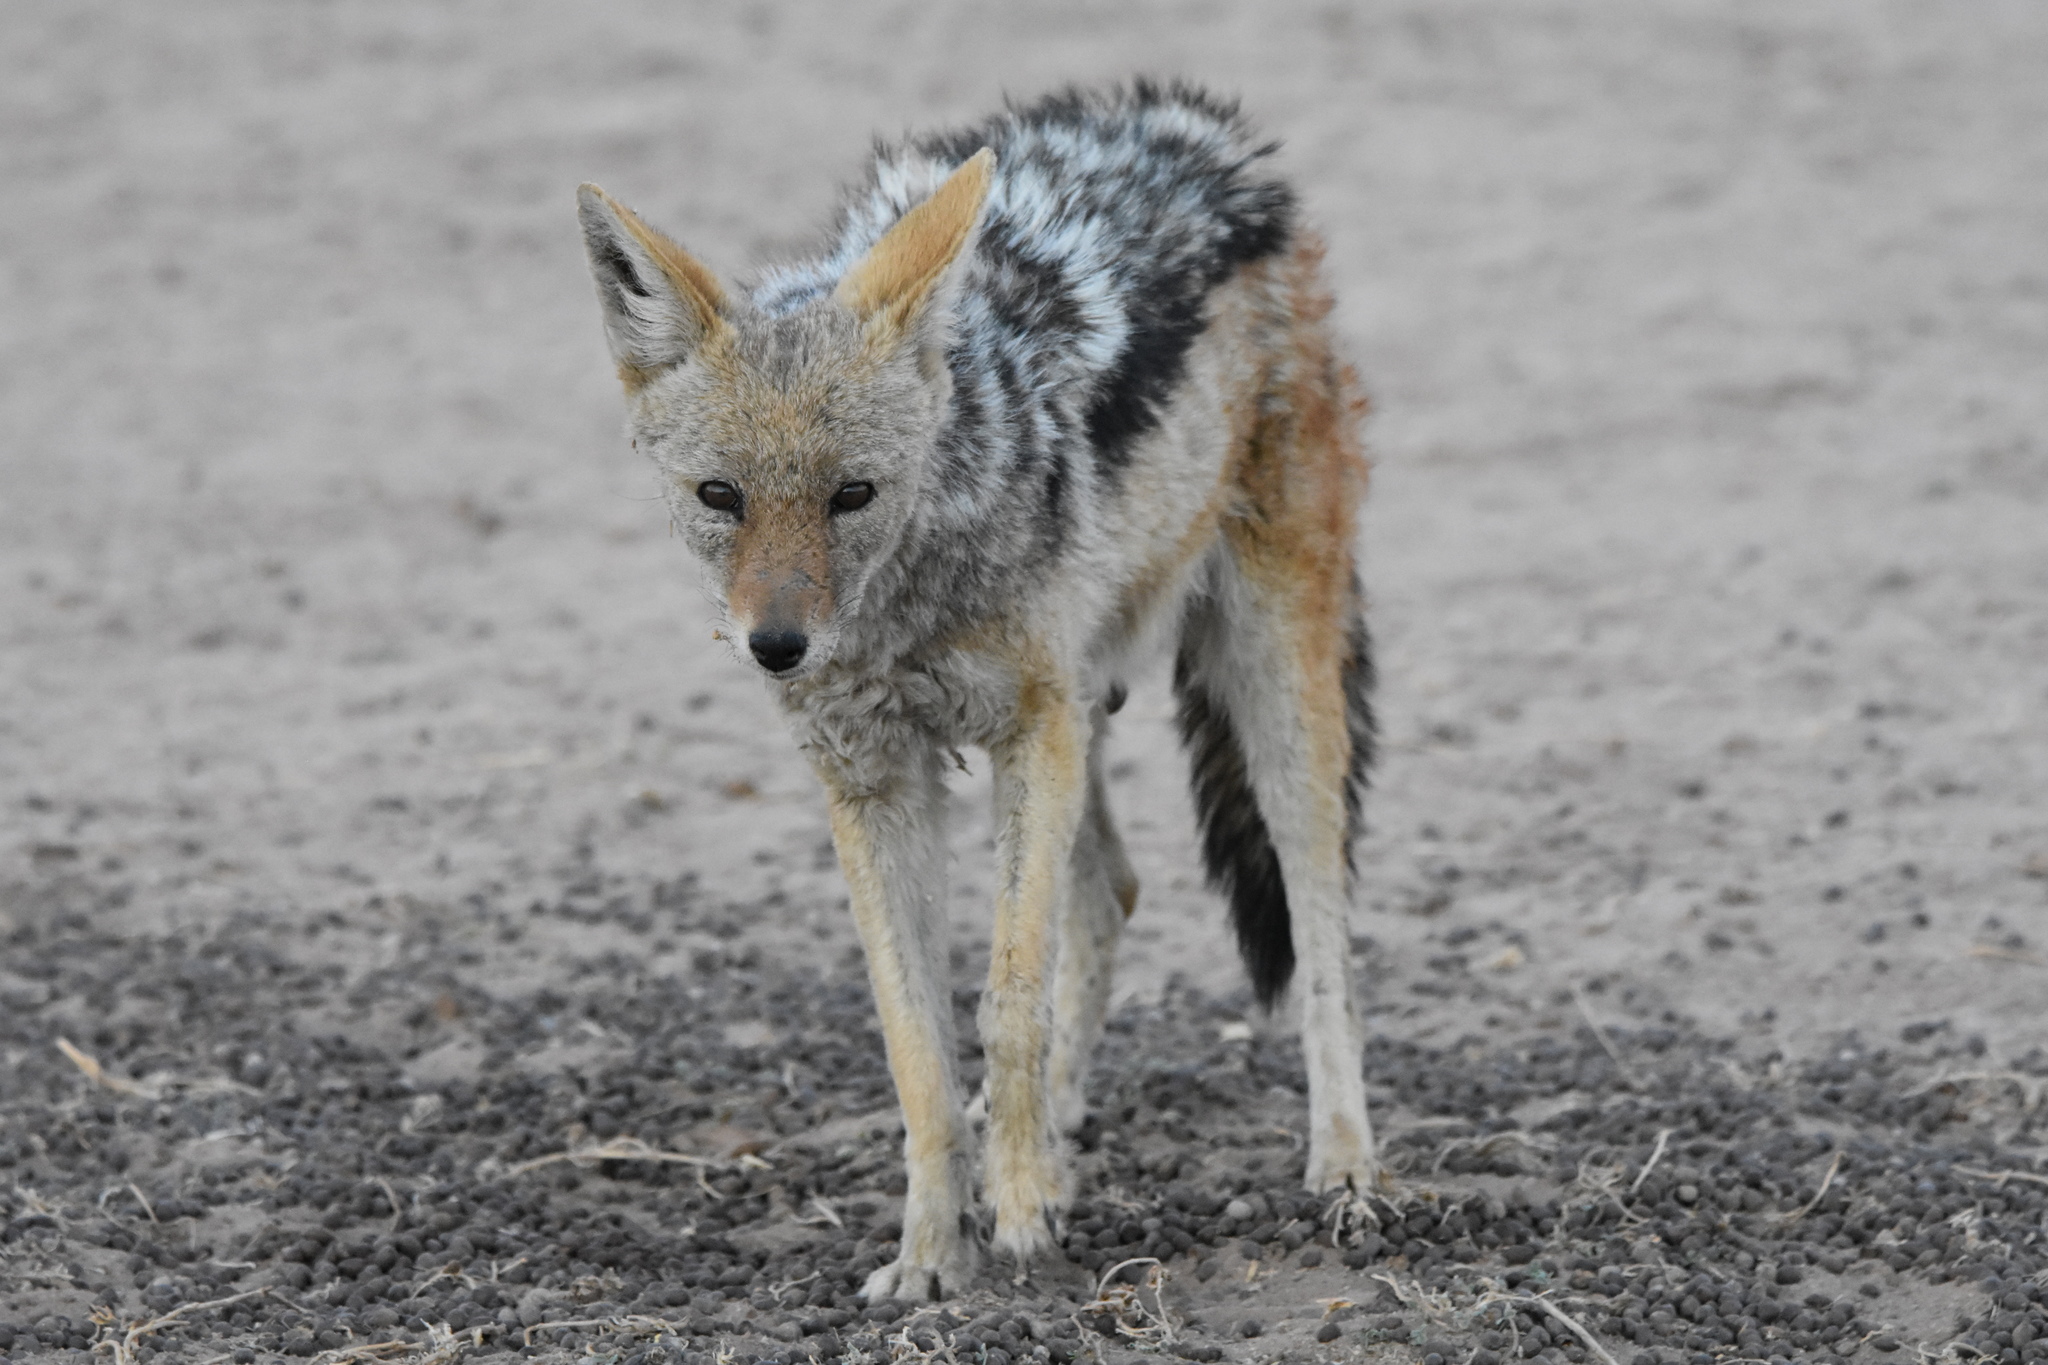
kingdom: Animalia
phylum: Chordata
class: Mammalia
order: Carnivora
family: Canidae
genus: Lupulella
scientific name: Lupulella
